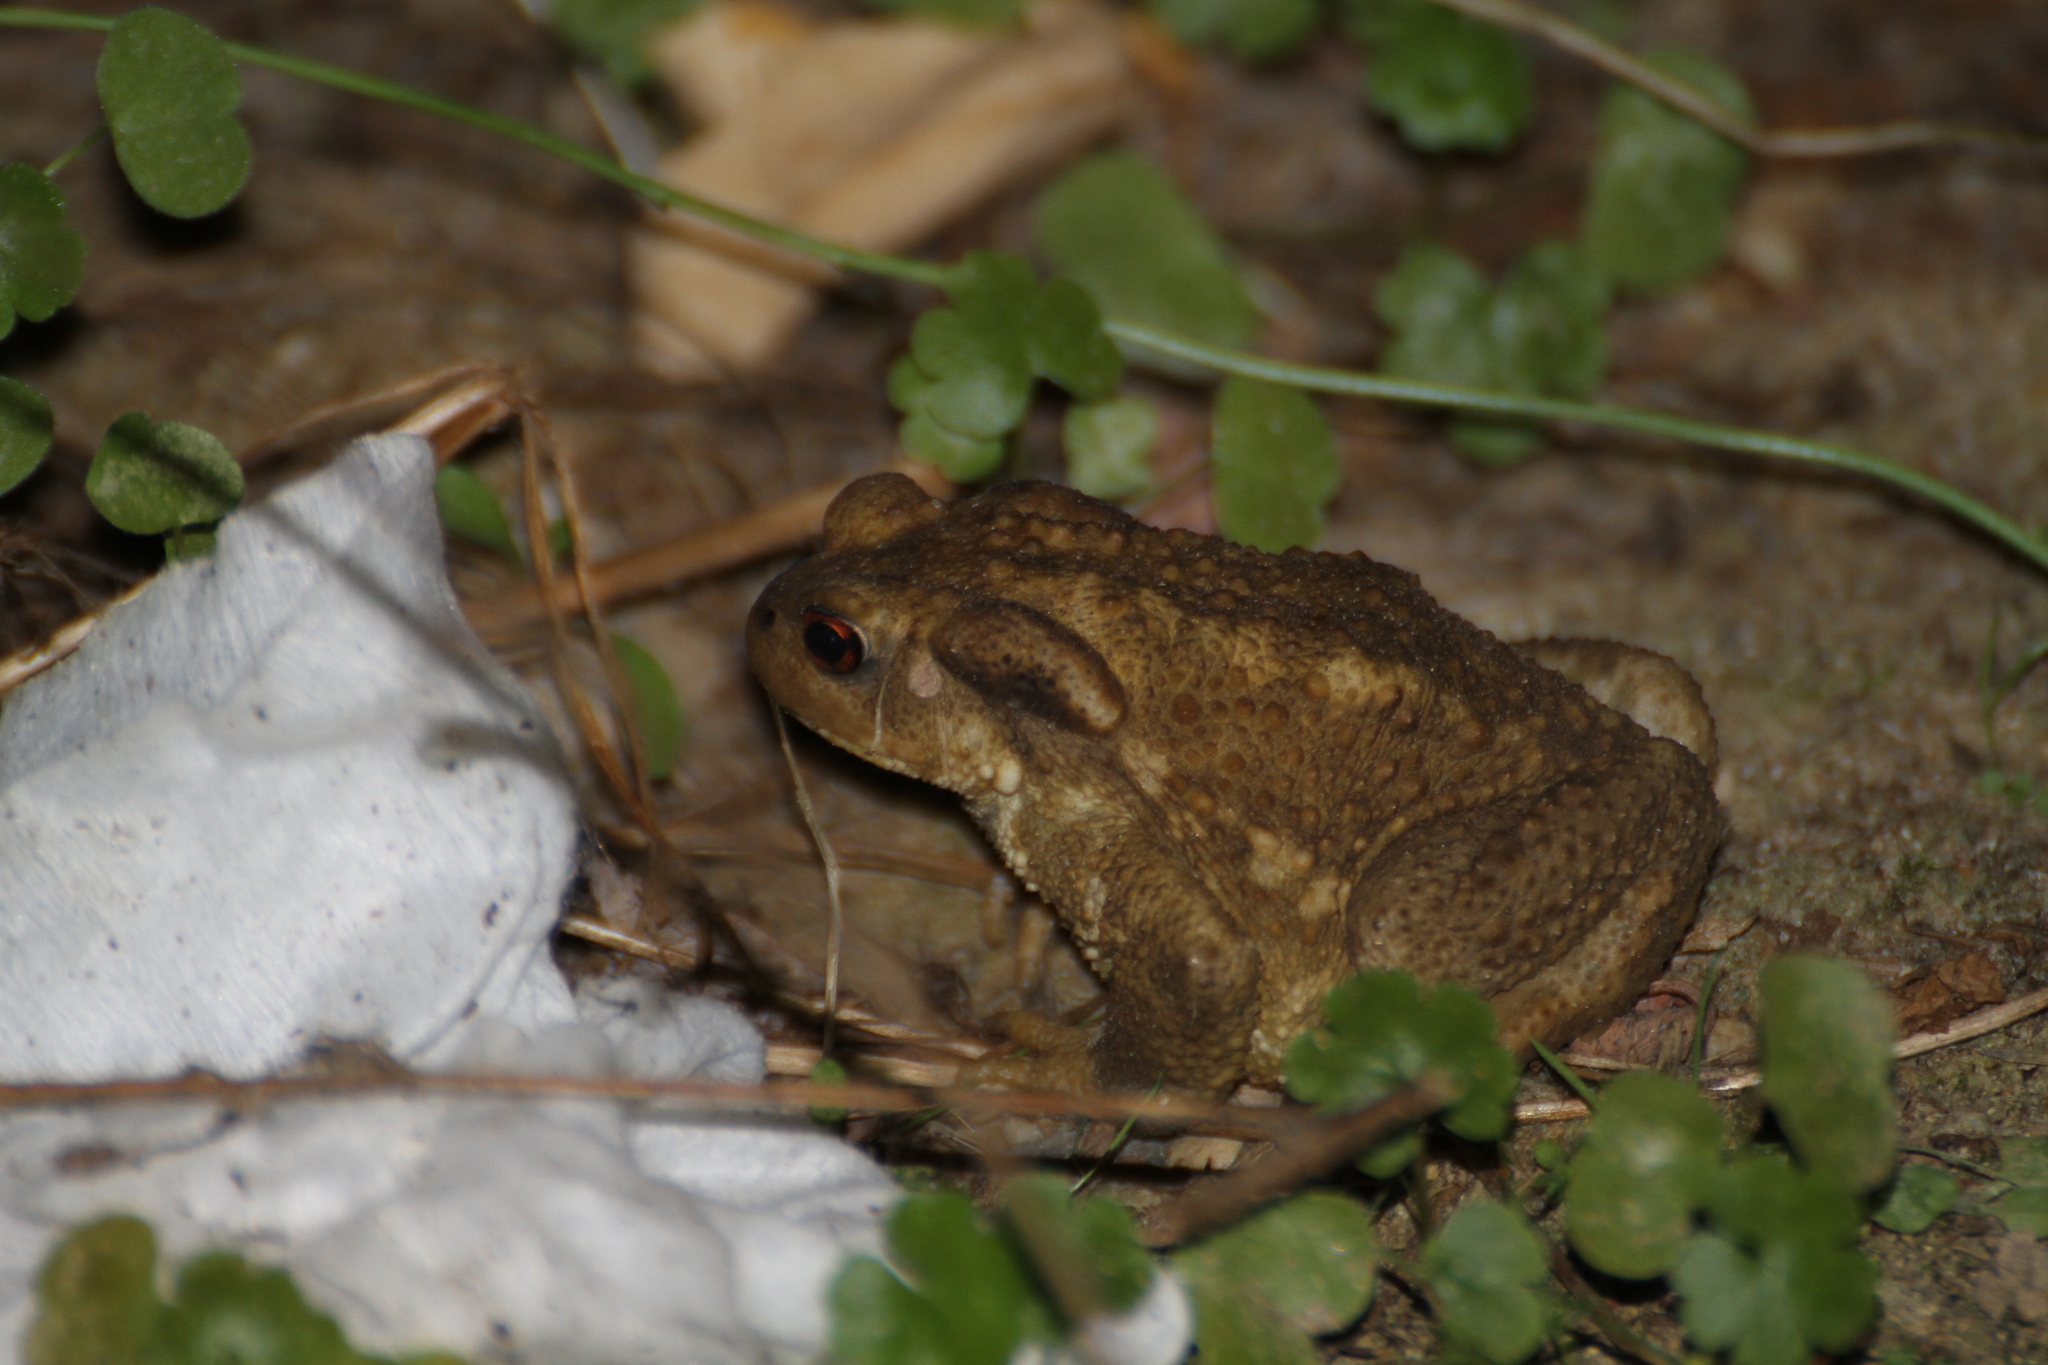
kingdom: Animalia
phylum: Chordata
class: Amphibia
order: Anura
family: Bufonidae
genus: Bufo
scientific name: Bufo spinosus
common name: Western common toad
